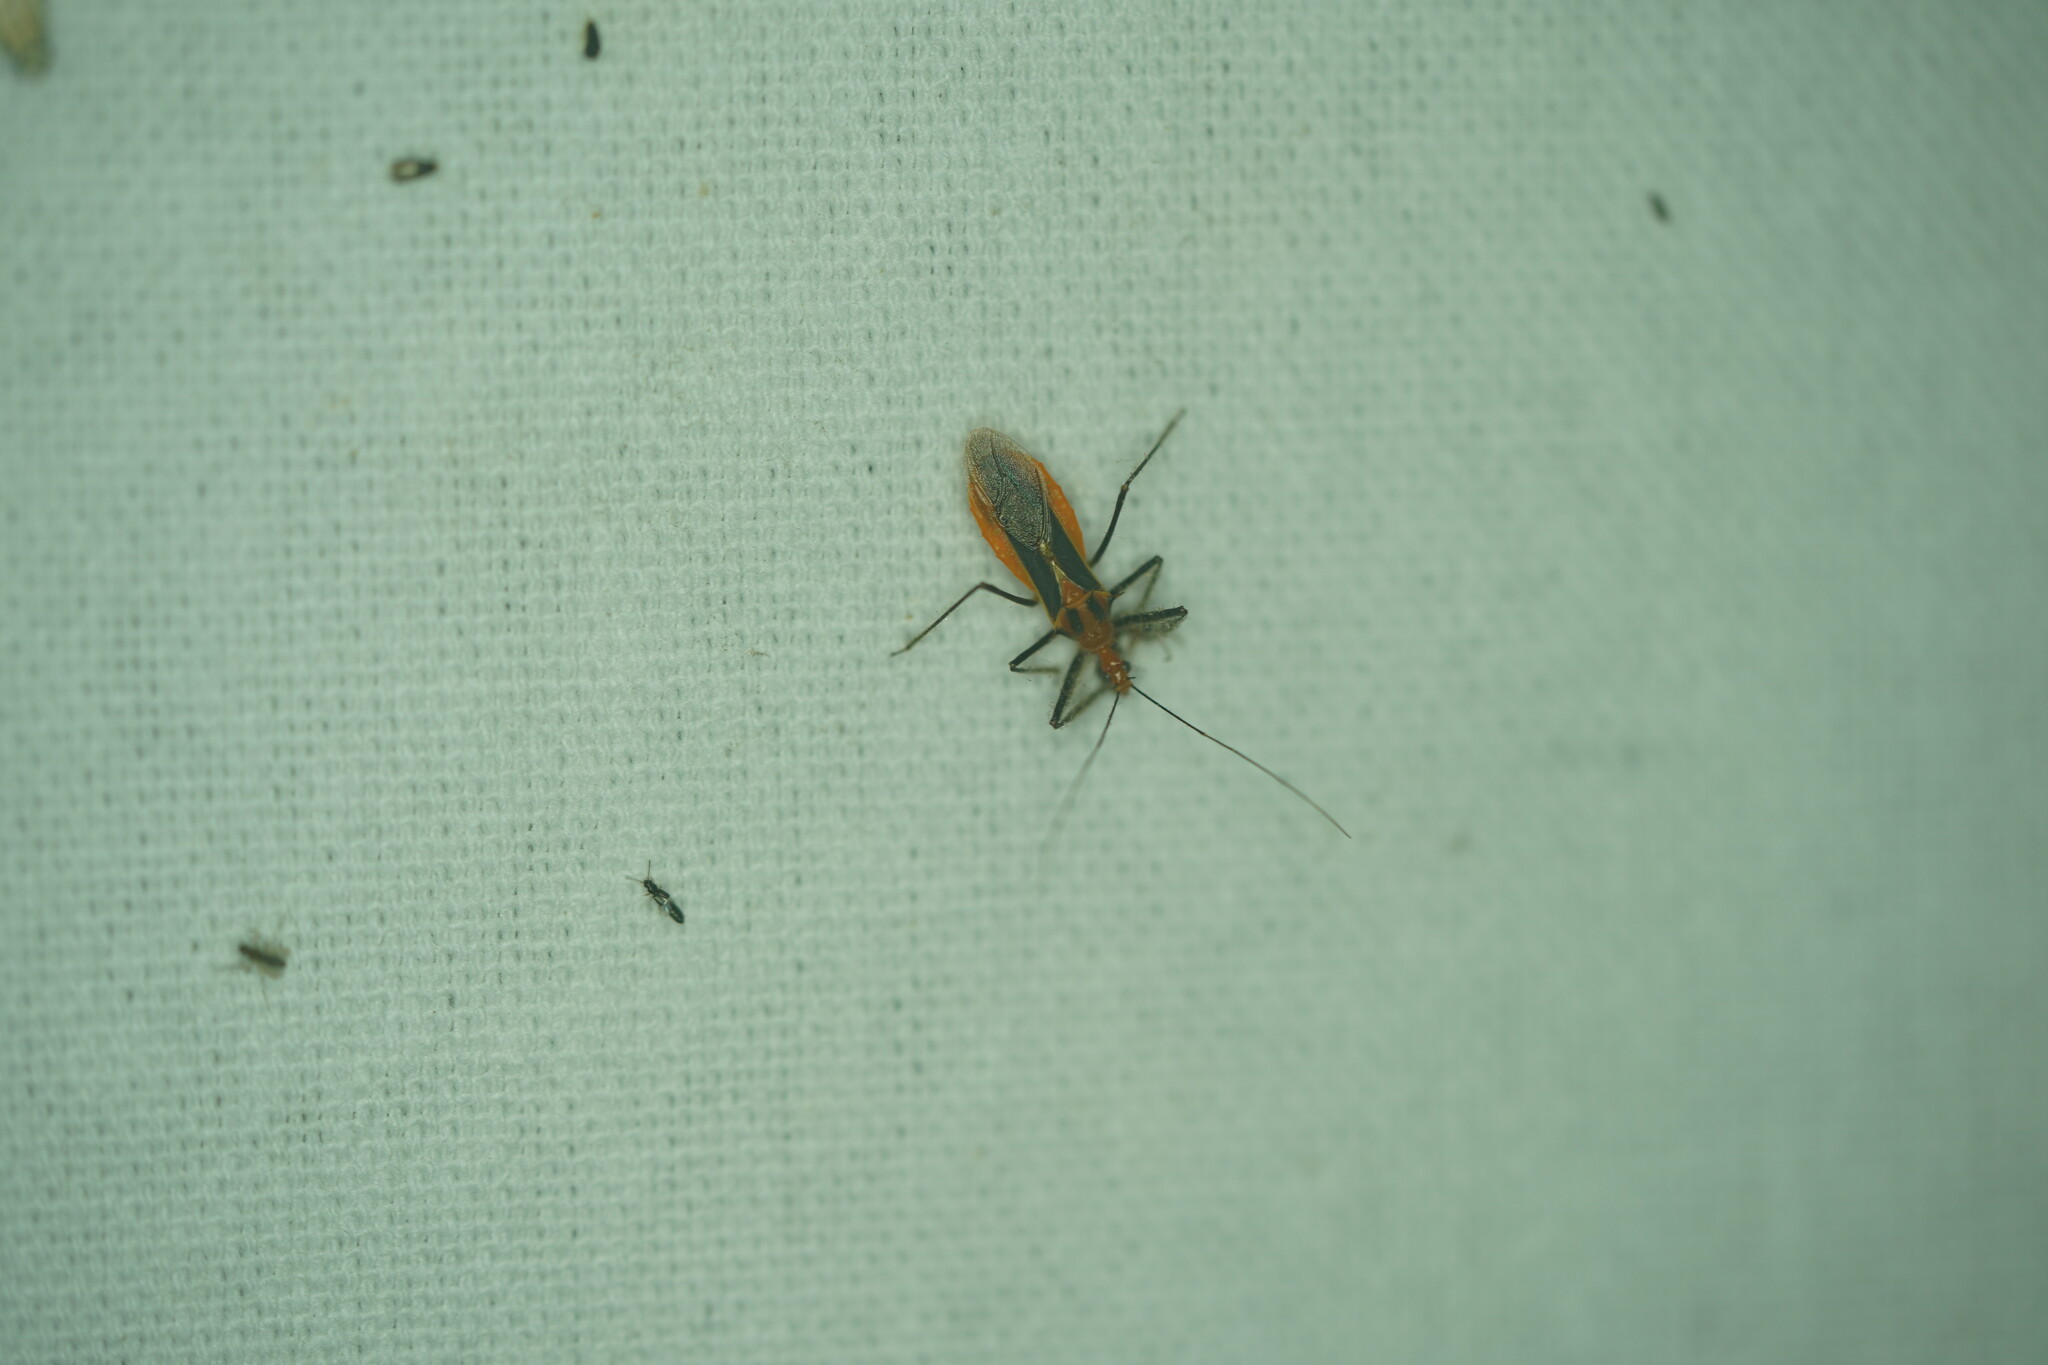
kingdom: Animalia
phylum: Arthropoda
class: Insecta
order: Hemiptera
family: Reduviidae
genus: Repipta
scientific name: Repipta taurus
